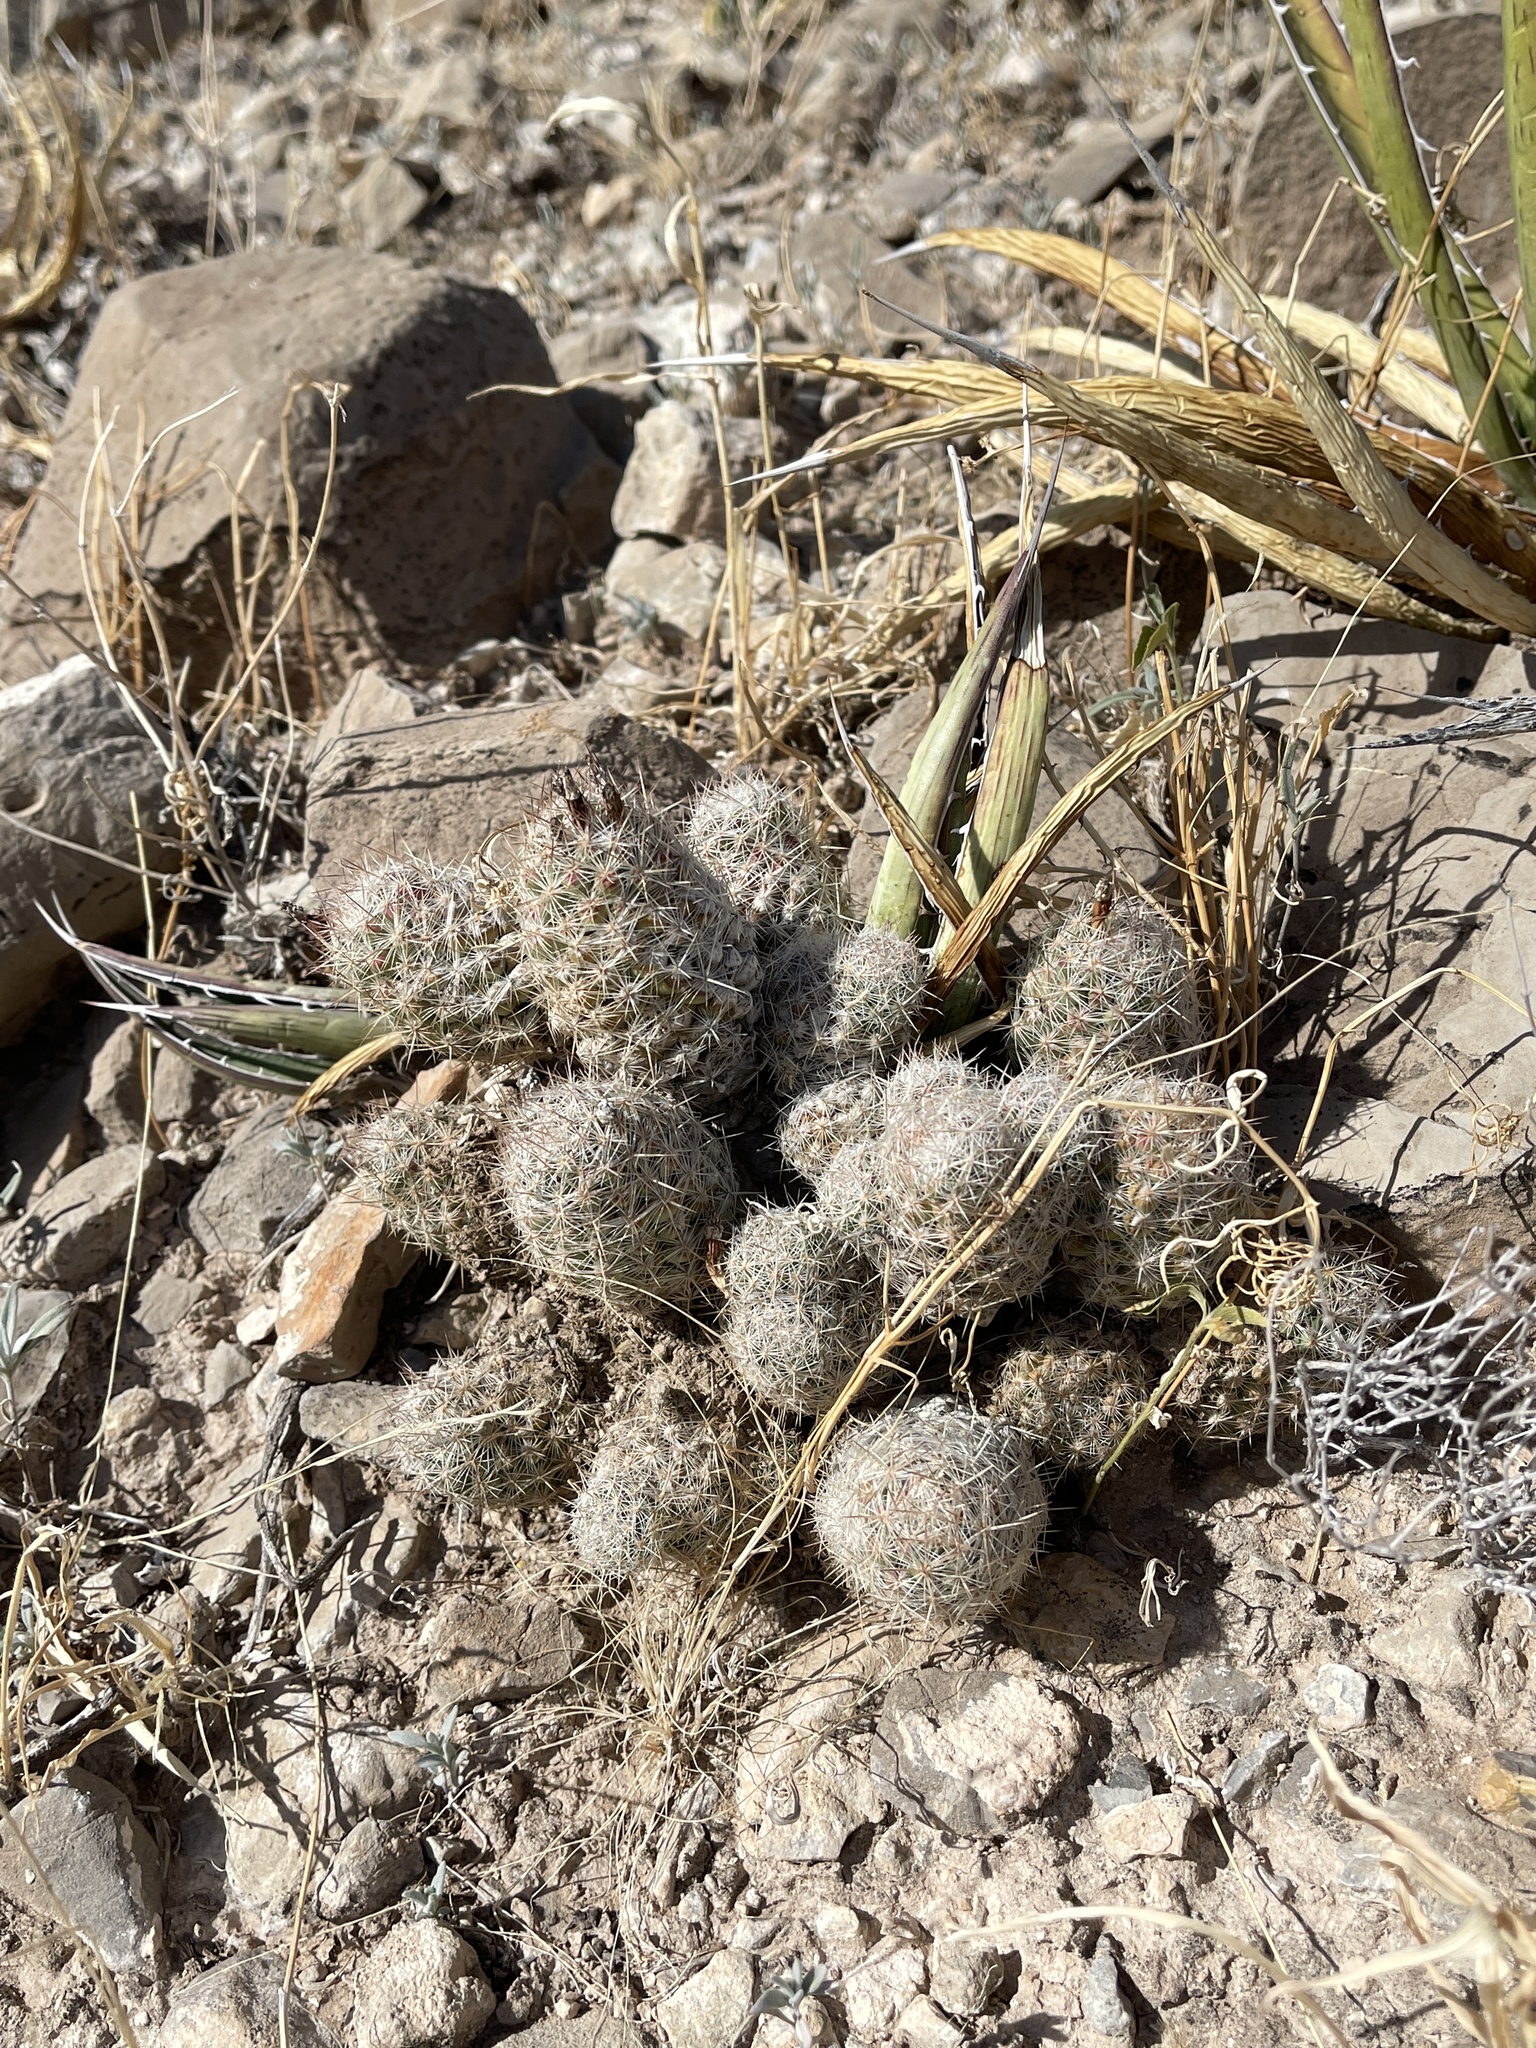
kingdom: Plantae
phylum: Tracheophyta
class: Magnoliopsida
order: Caryophyllales
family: Cactaceae
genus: Pelecyphora
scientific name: Pelecyphora tuberculosa
